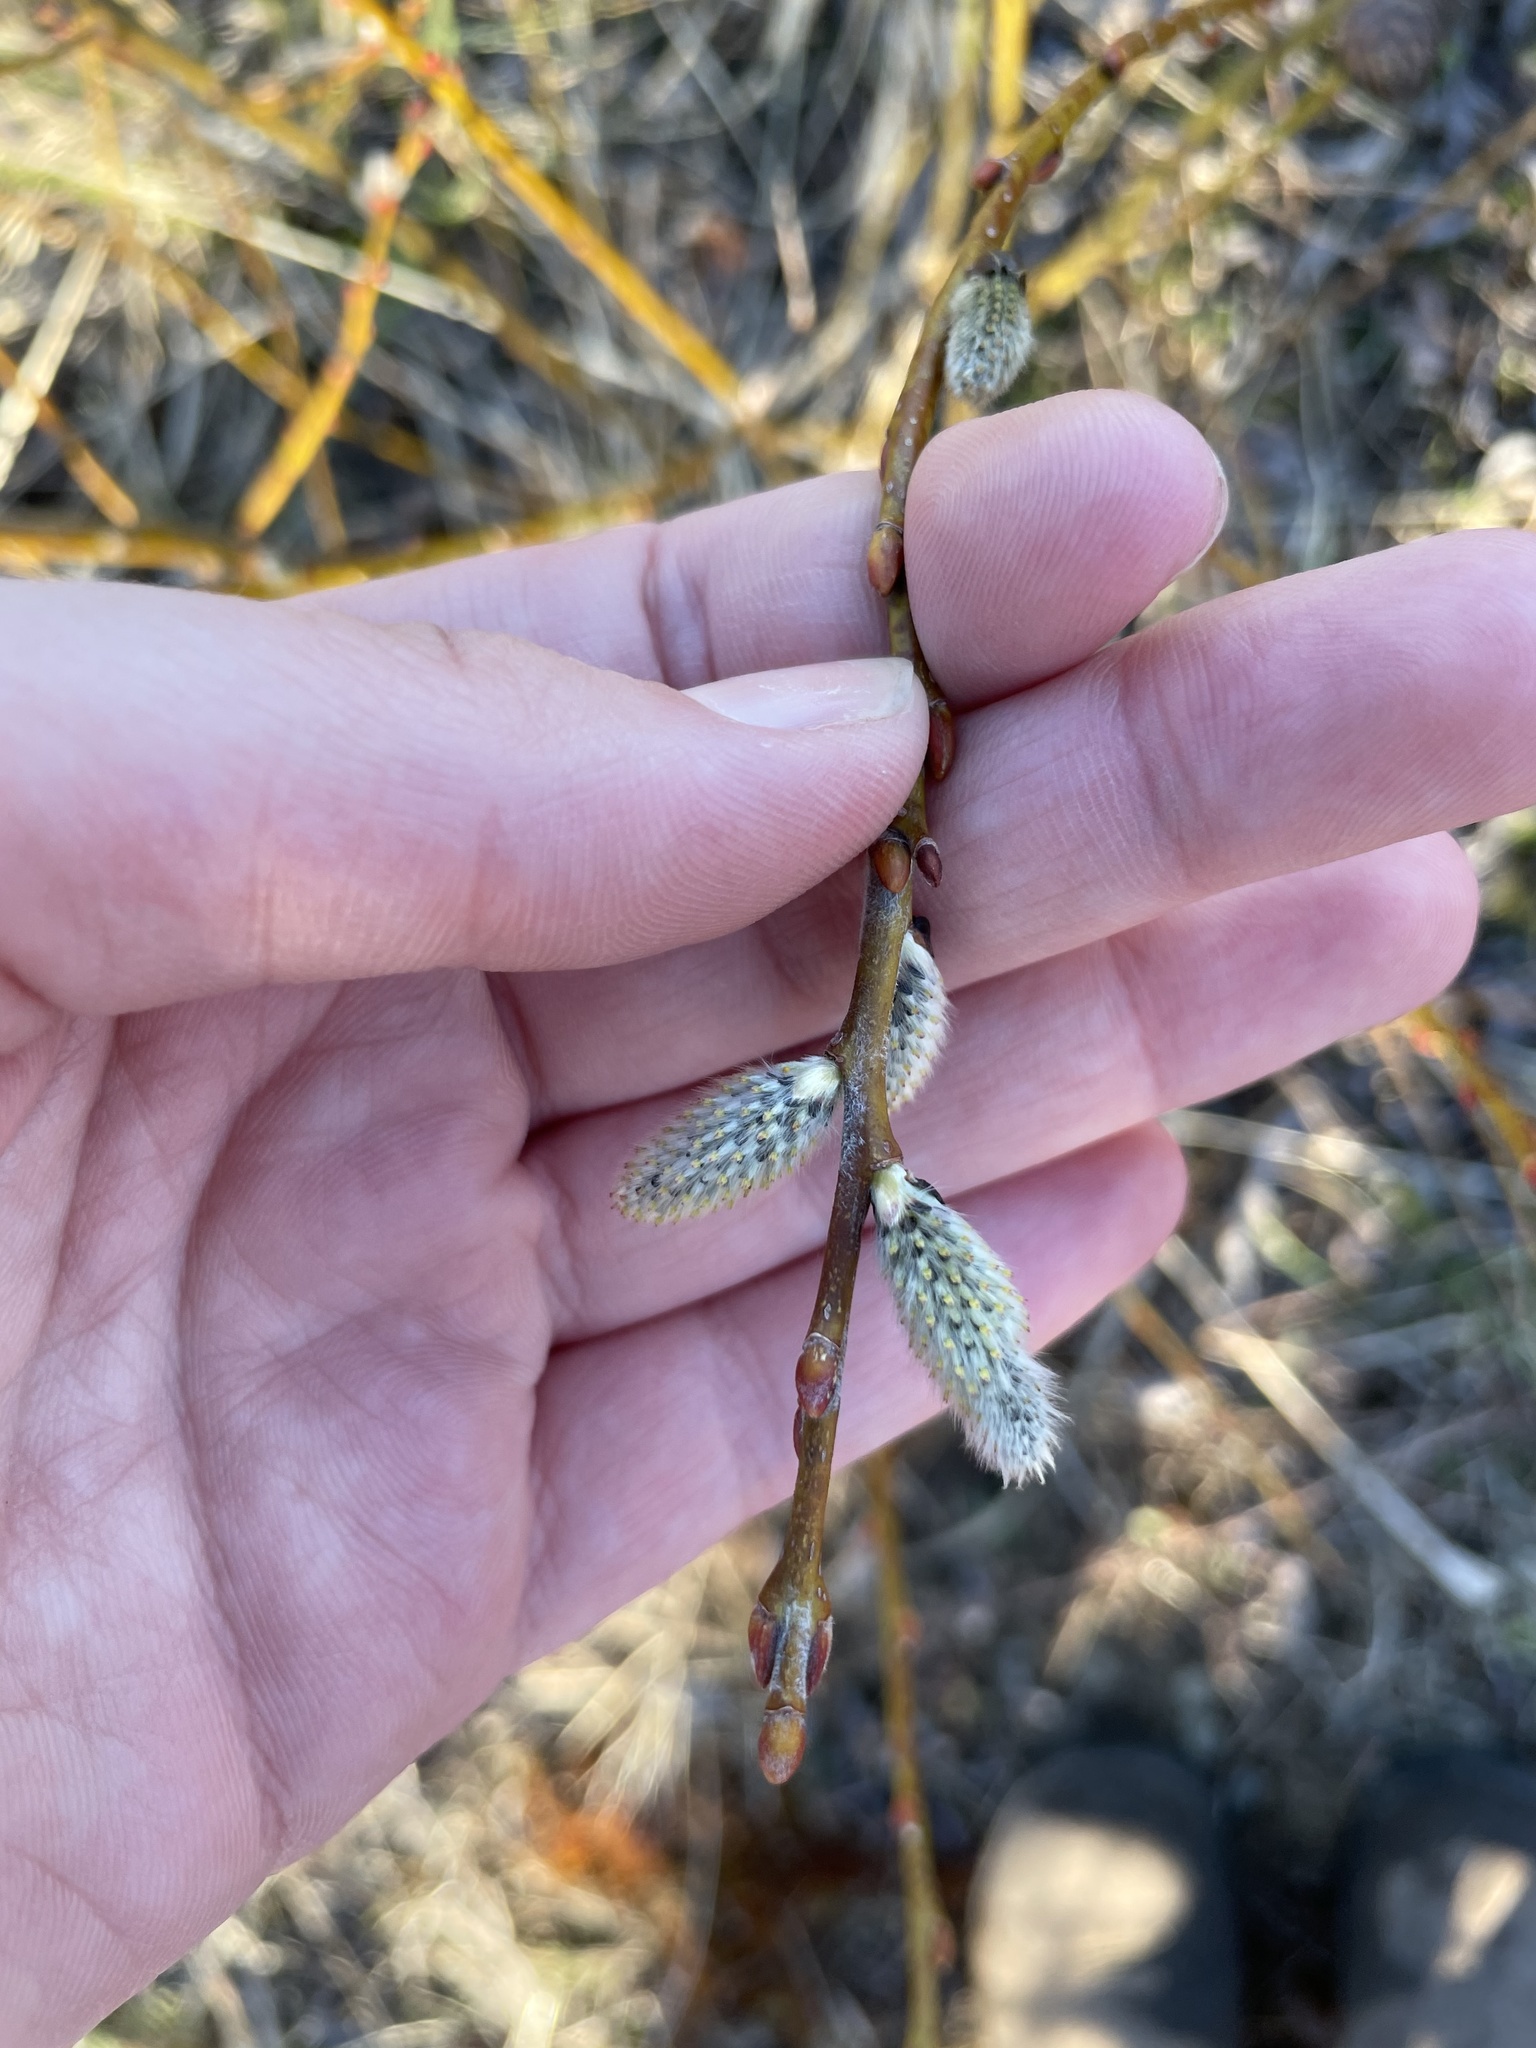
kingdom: Plantae
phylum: Tracheophyta
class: Magnoliopsida
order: Malpighiales
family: Salicaceae
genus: Salix
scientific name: Salix discolor
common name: Glaucous willow
